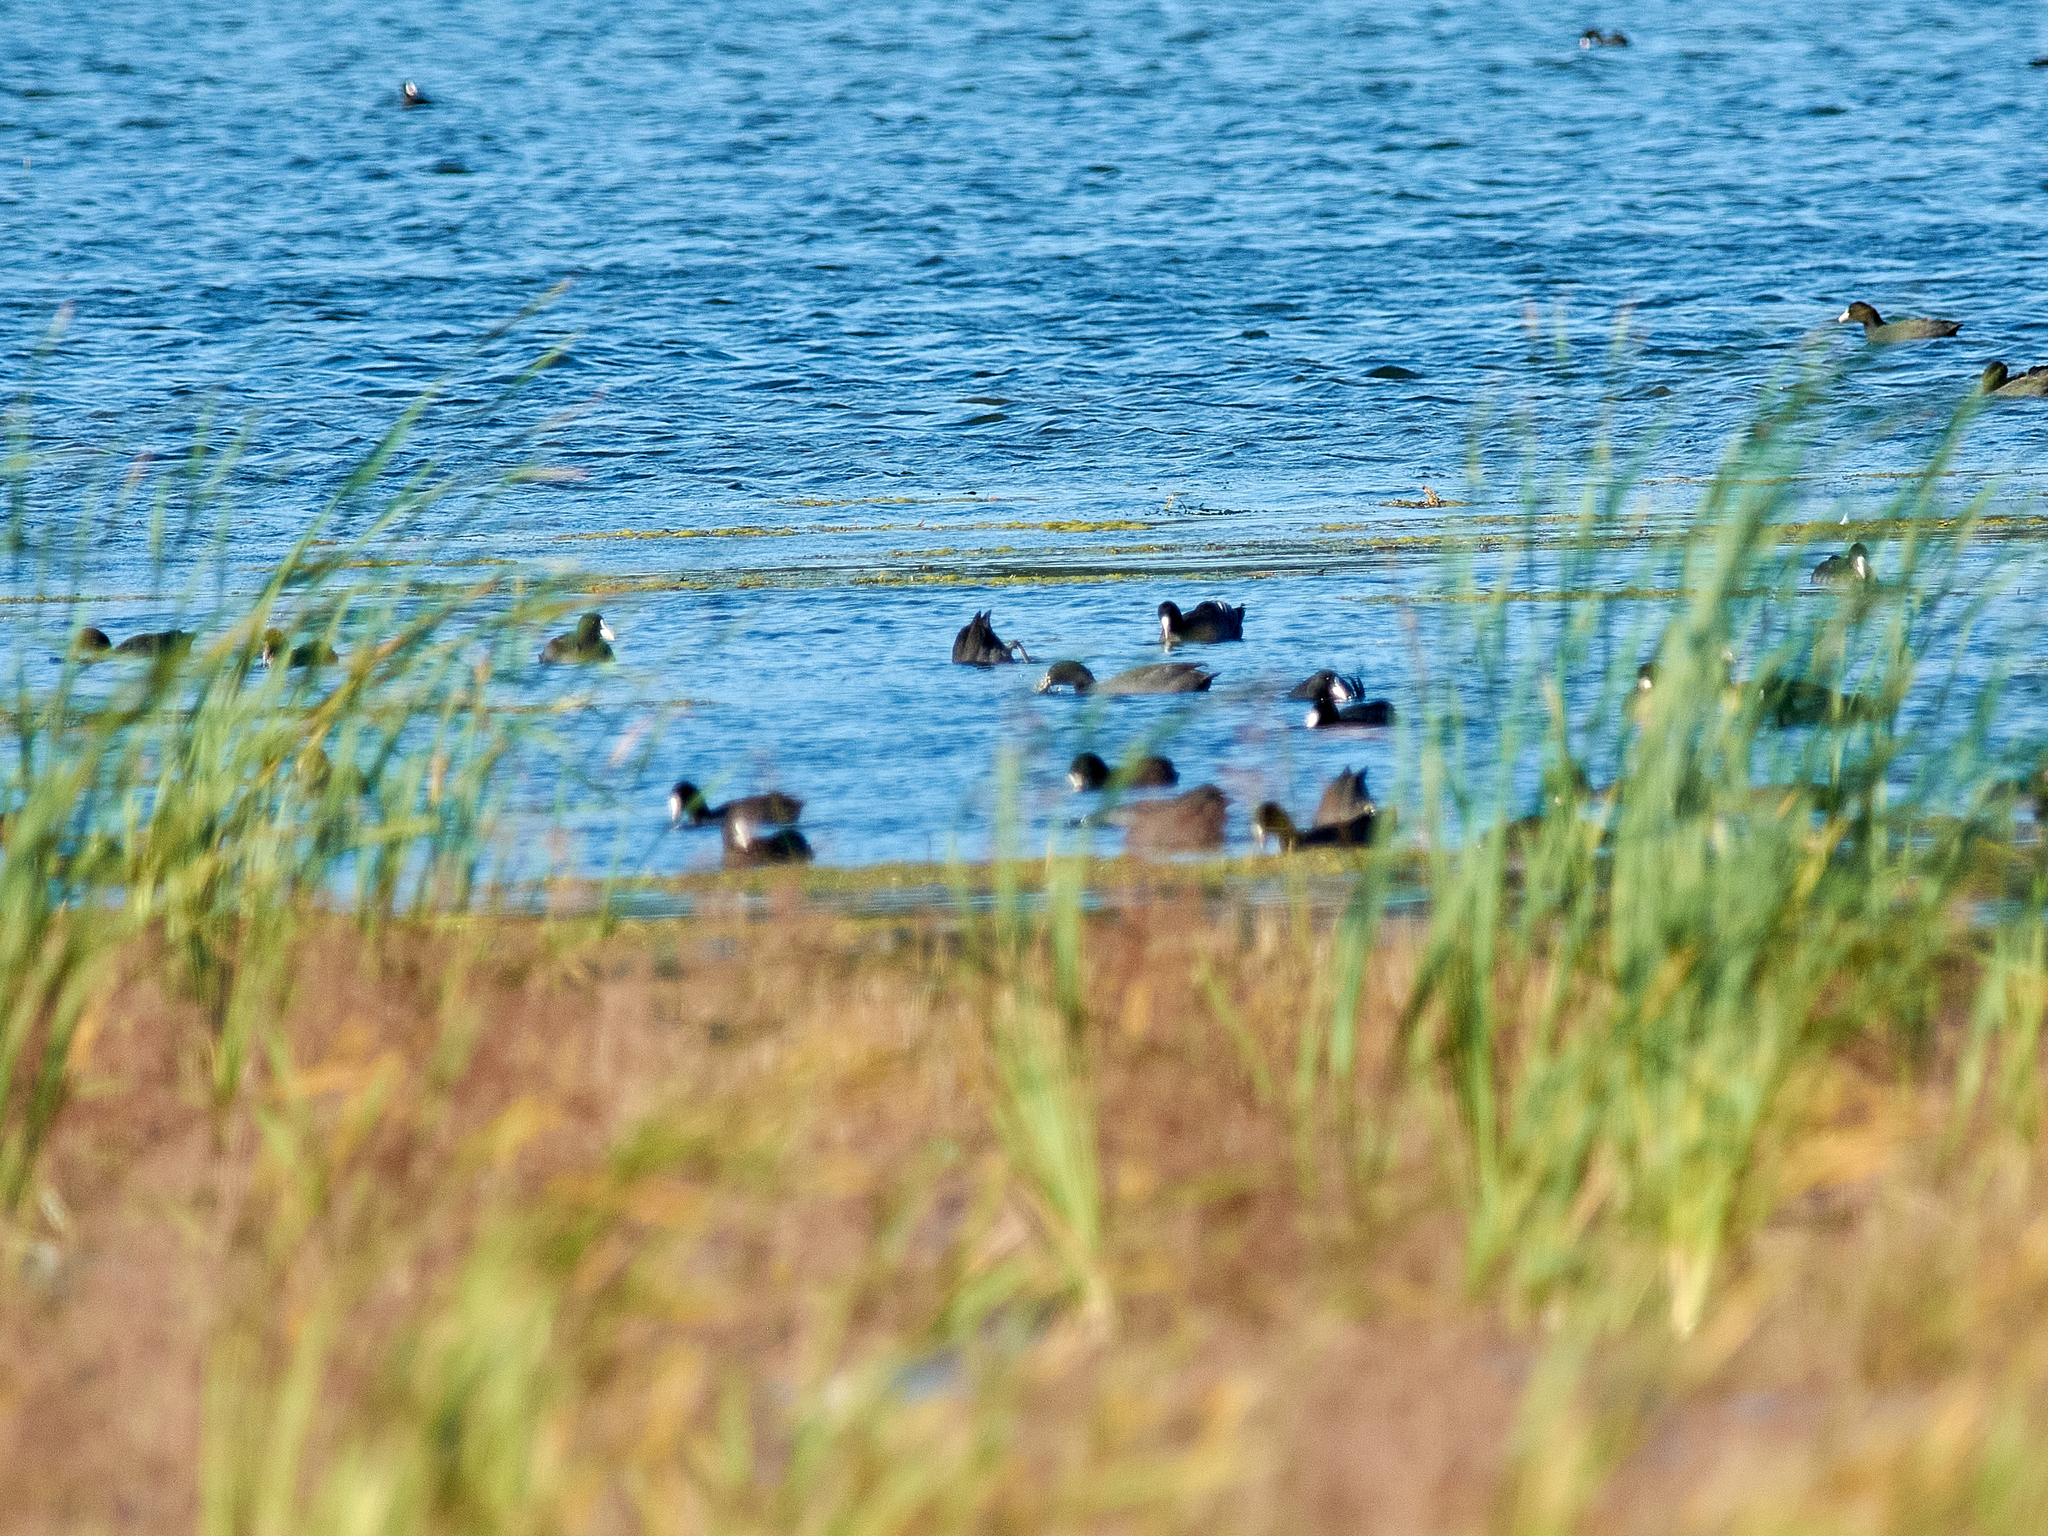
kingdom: Animalia
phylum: Chordata
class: Aves
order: Gruiformes
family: Rallidae
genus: Fulica
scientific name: Fulica atra
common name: Eurasian coot
